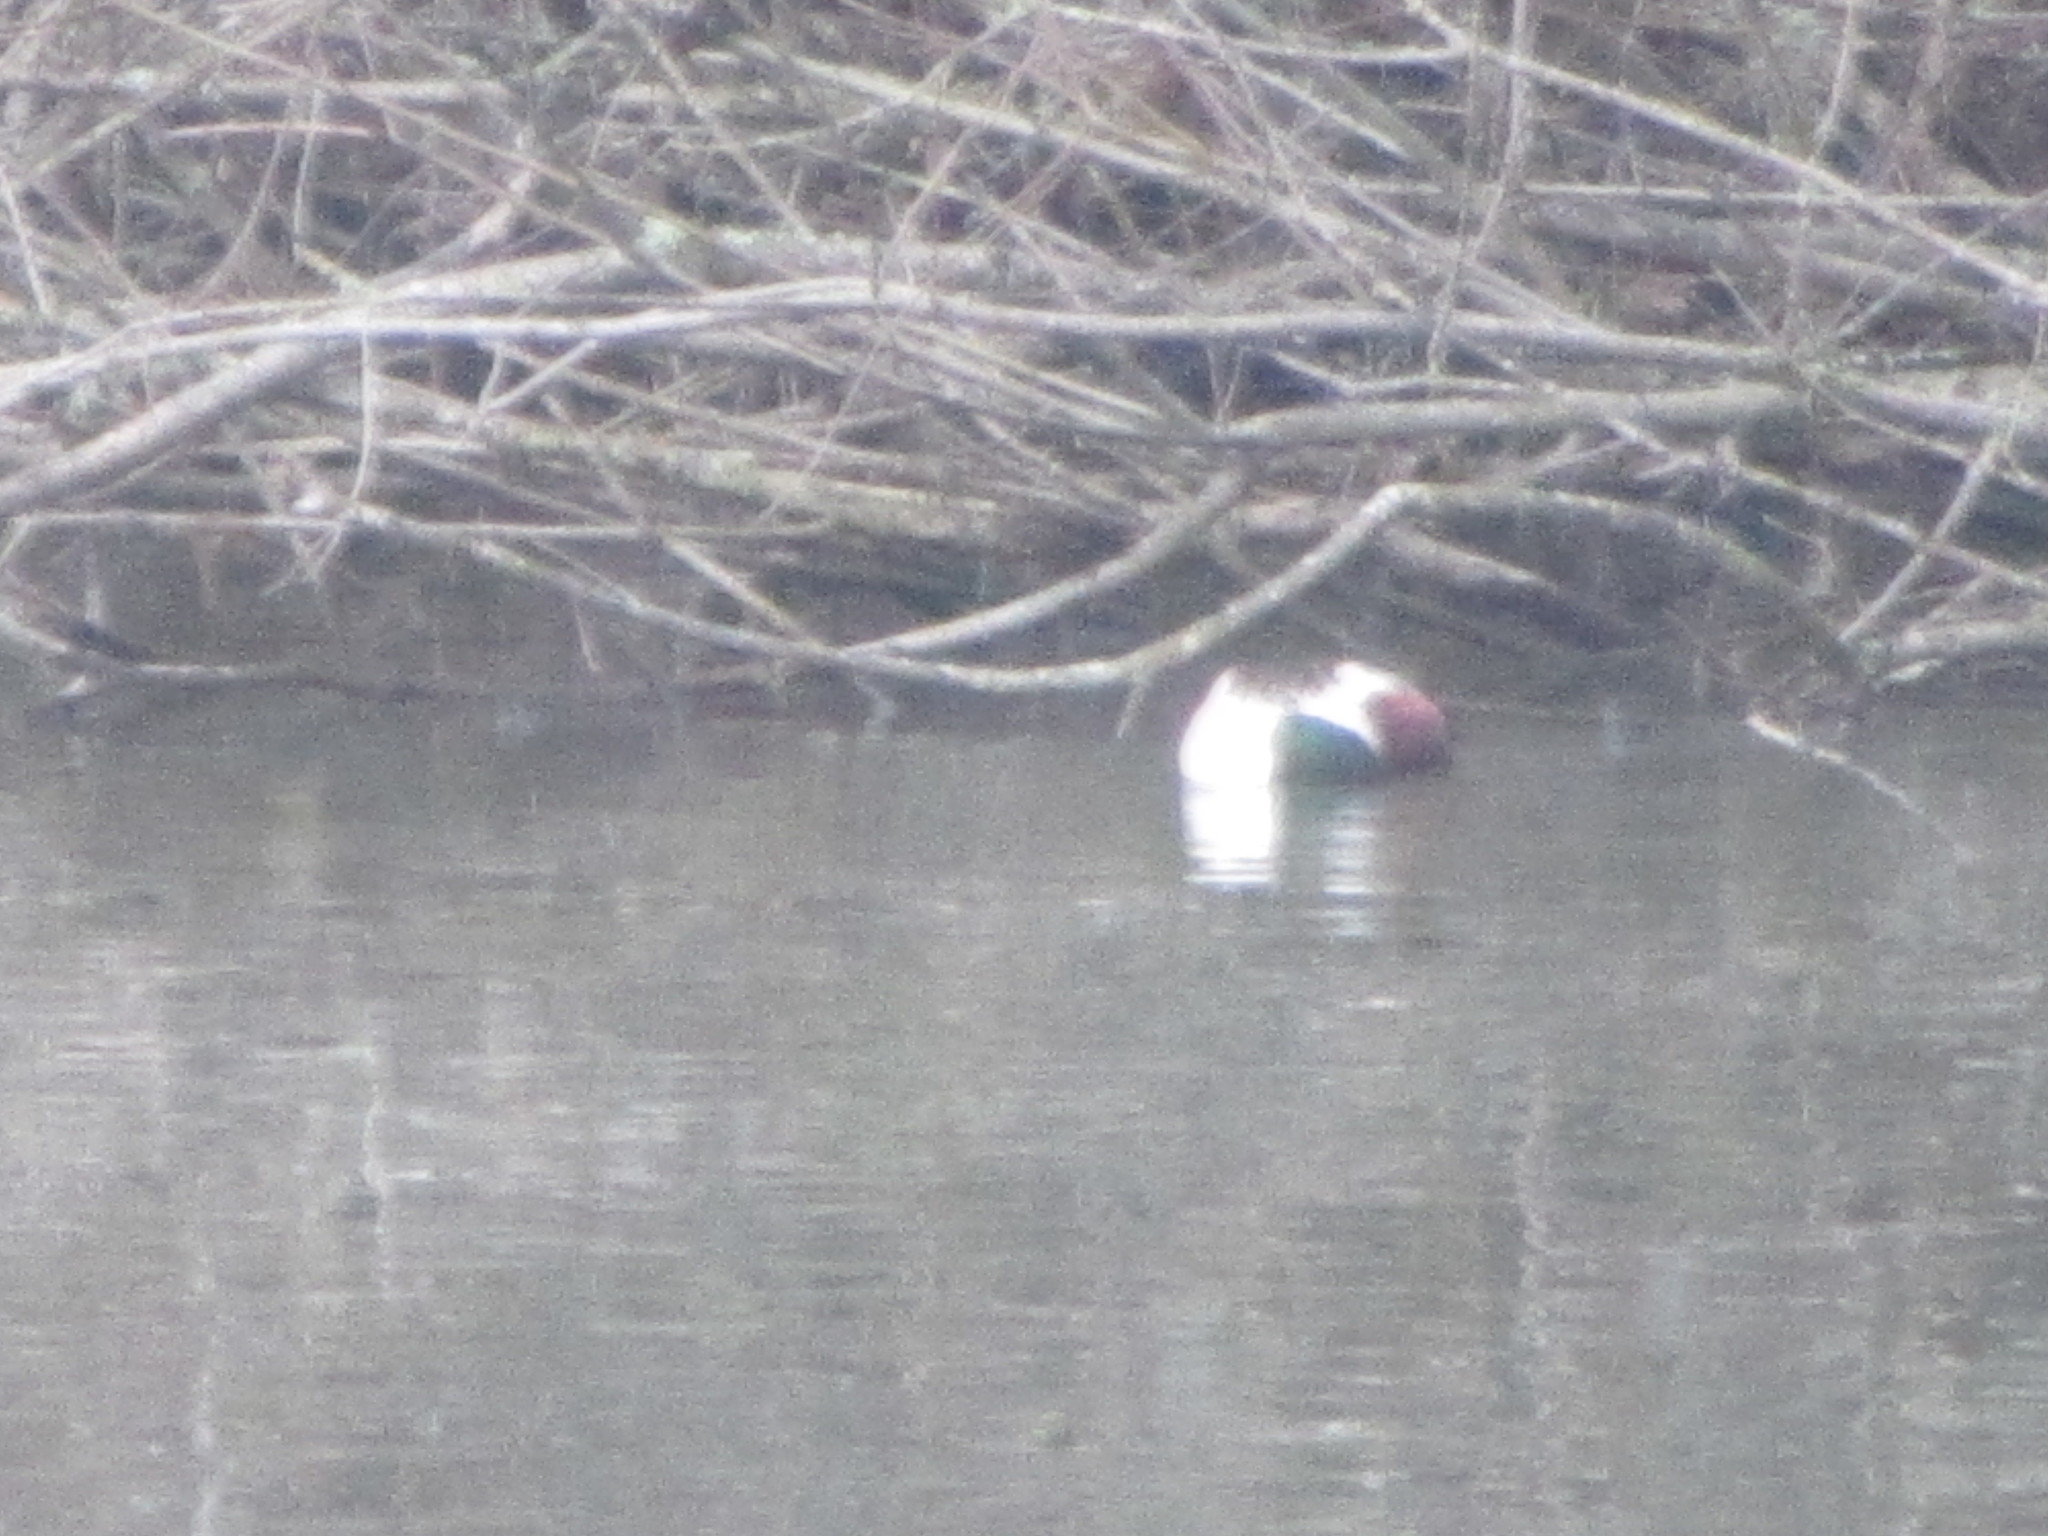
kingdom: Animalia
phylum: Chordata
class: Aves
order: Anseriformes
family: Anatidae
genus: Spatula
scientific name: Spatula clypeata
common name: Northern shoveler
